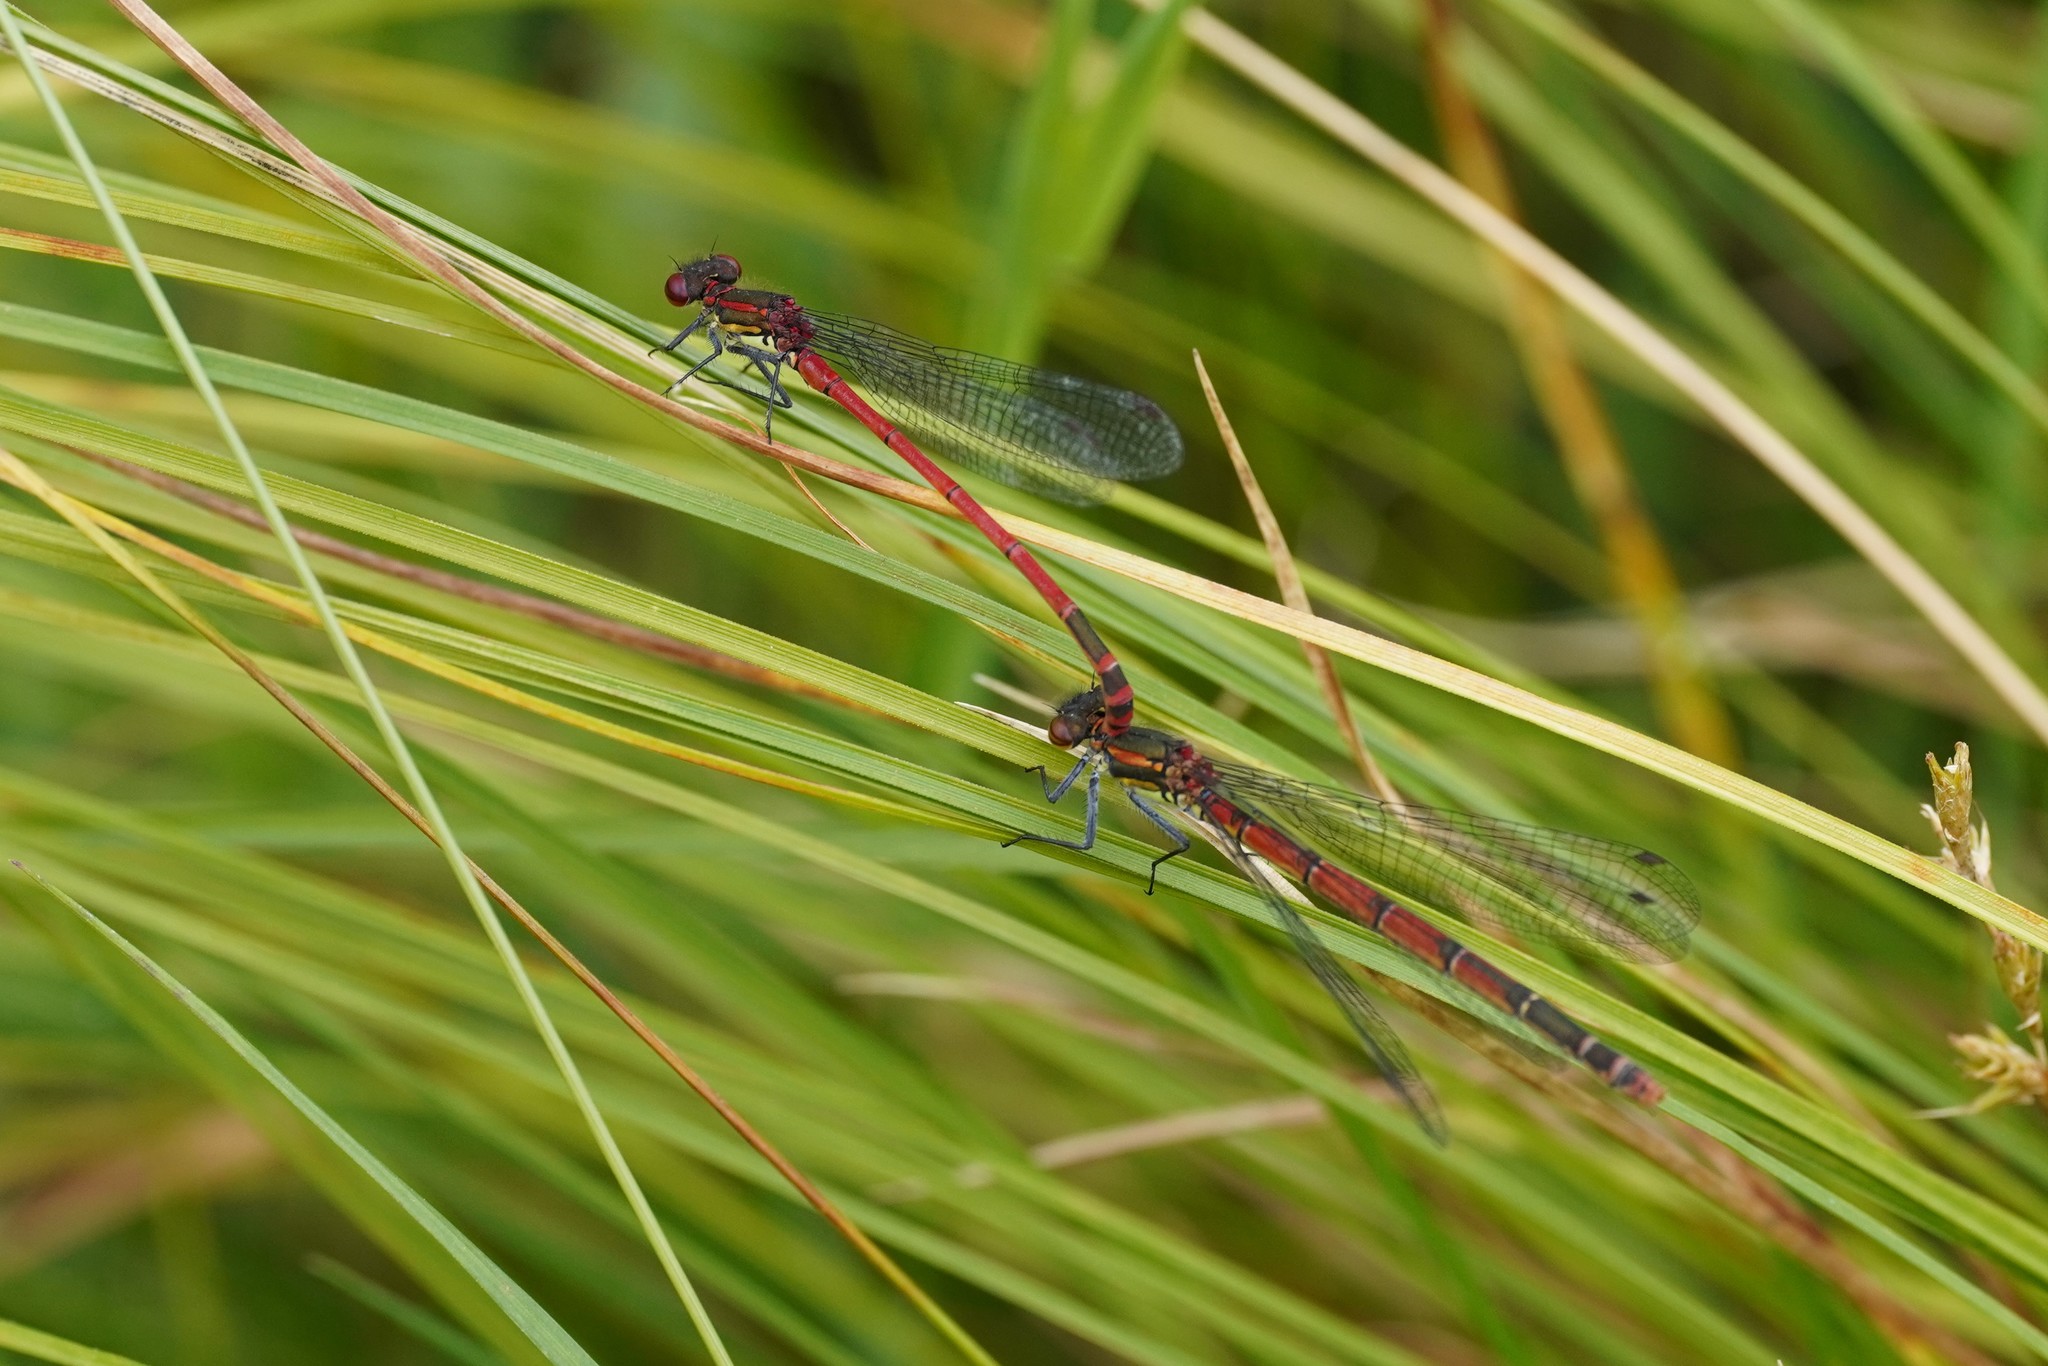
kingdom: Animalia
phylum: Arthropoda
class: Insecta
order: Odonata
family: Coenagrionidae
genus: Pyrrhosoma
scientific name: Pyrrhosoma nymphula
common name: Large red damsel
